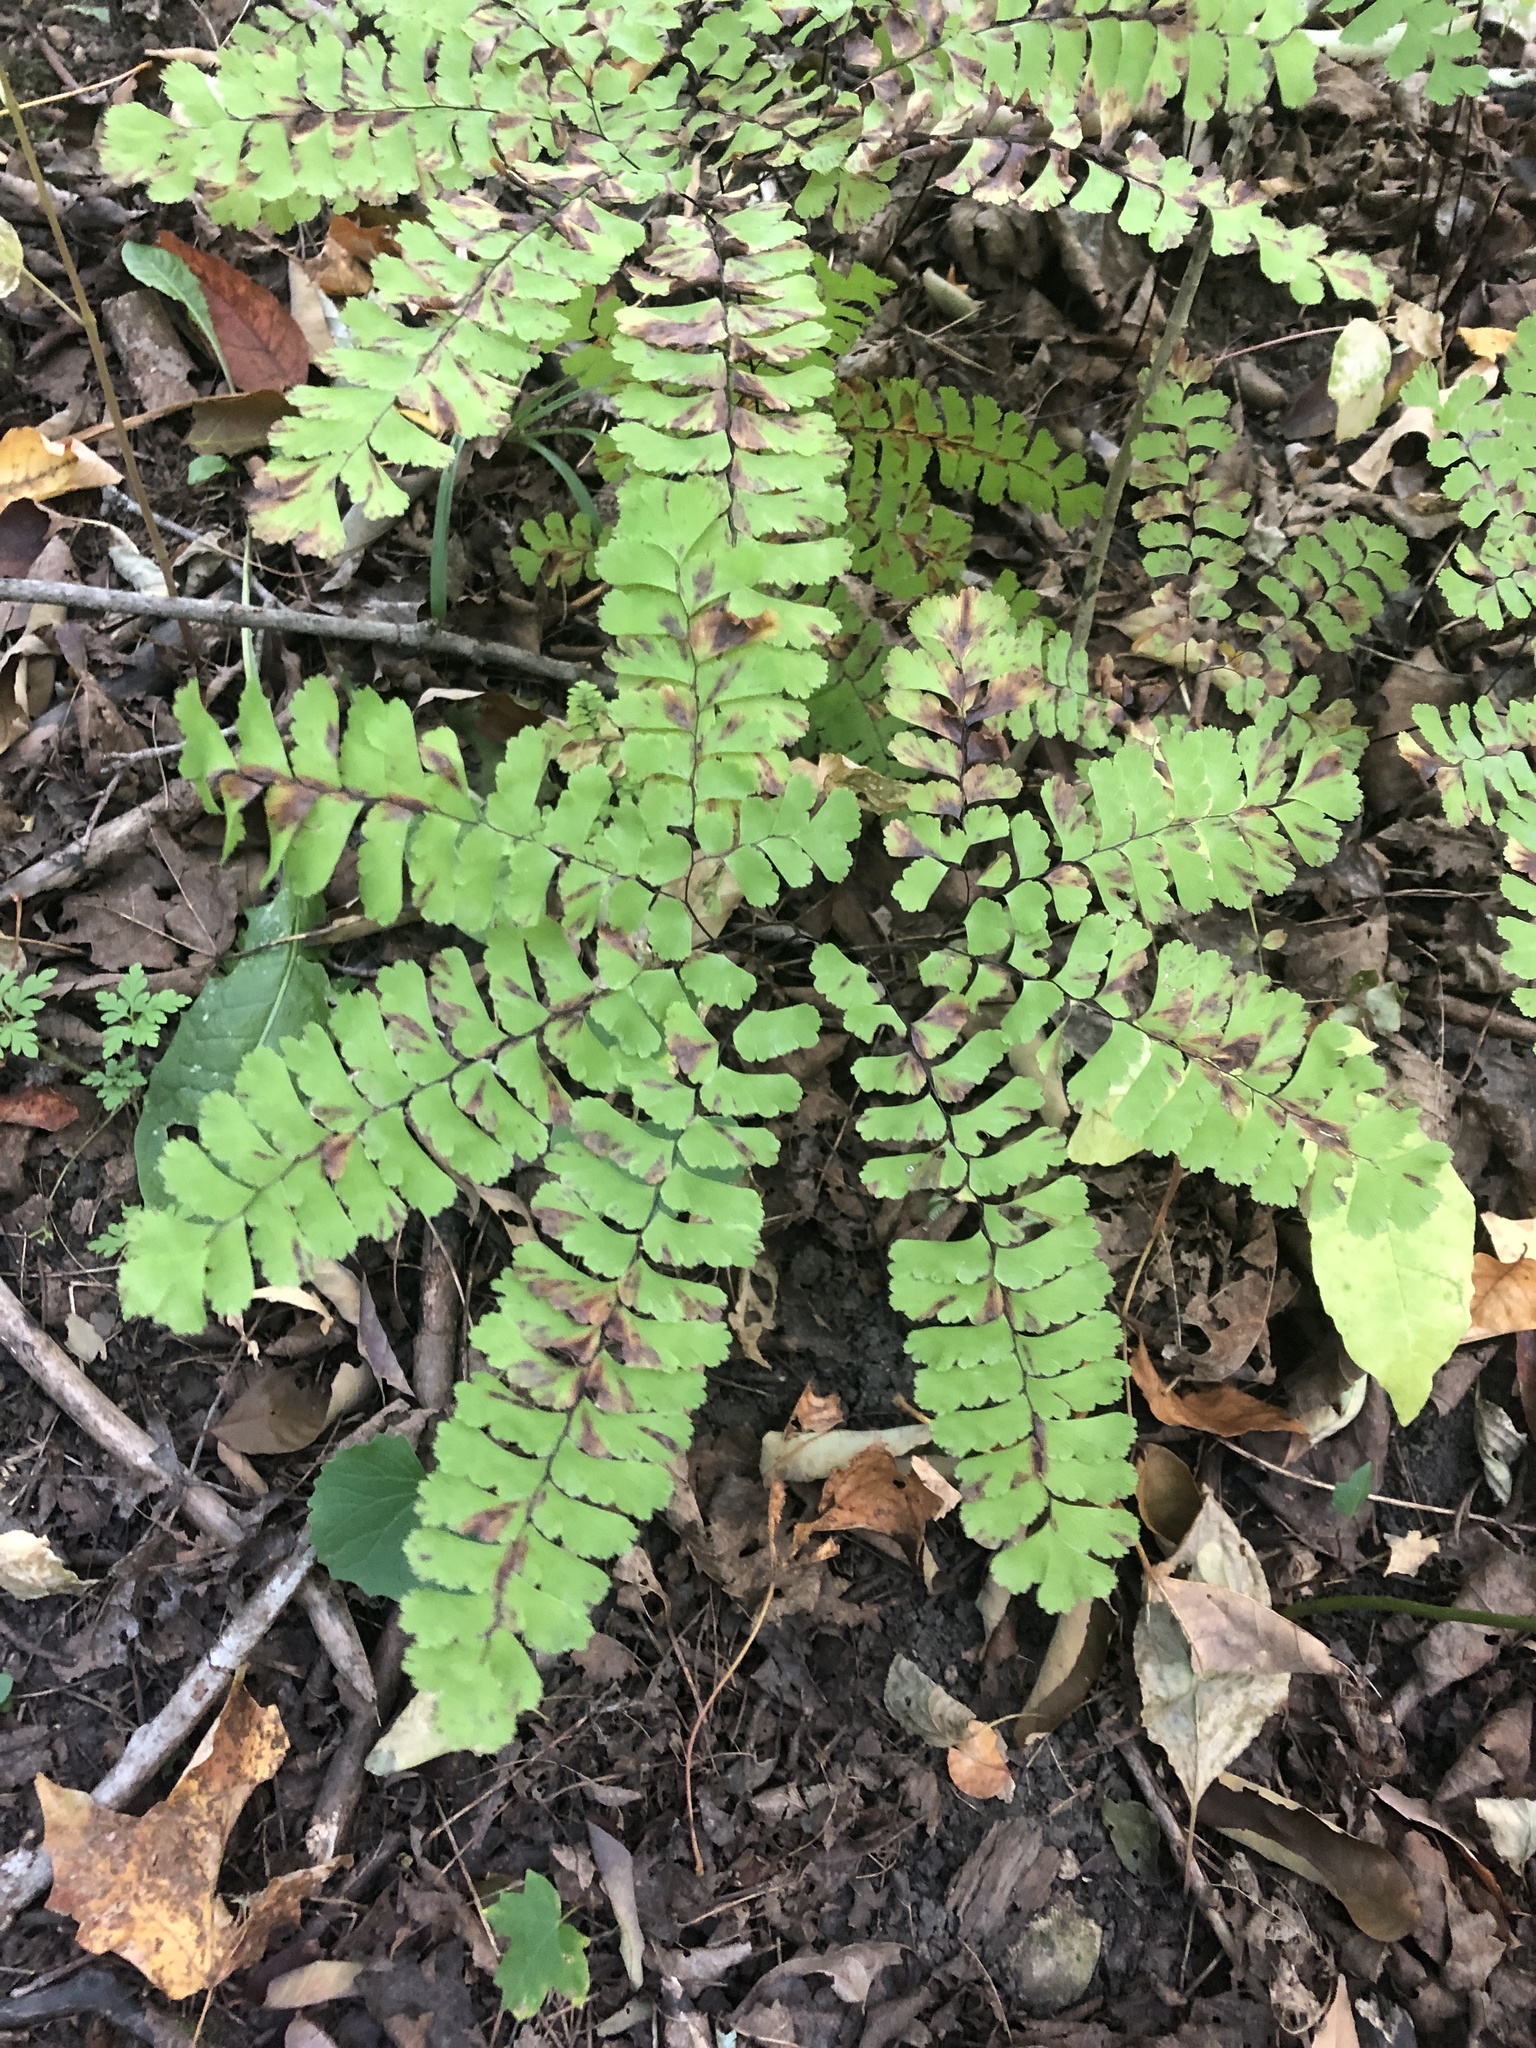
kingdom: Plantae
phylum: Tracheophyta
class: Polypodiopsida
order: Polypodiales
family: Pteridaceae
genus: Adiantum
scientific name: Adiantum pedatum
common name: Five-finger fern
